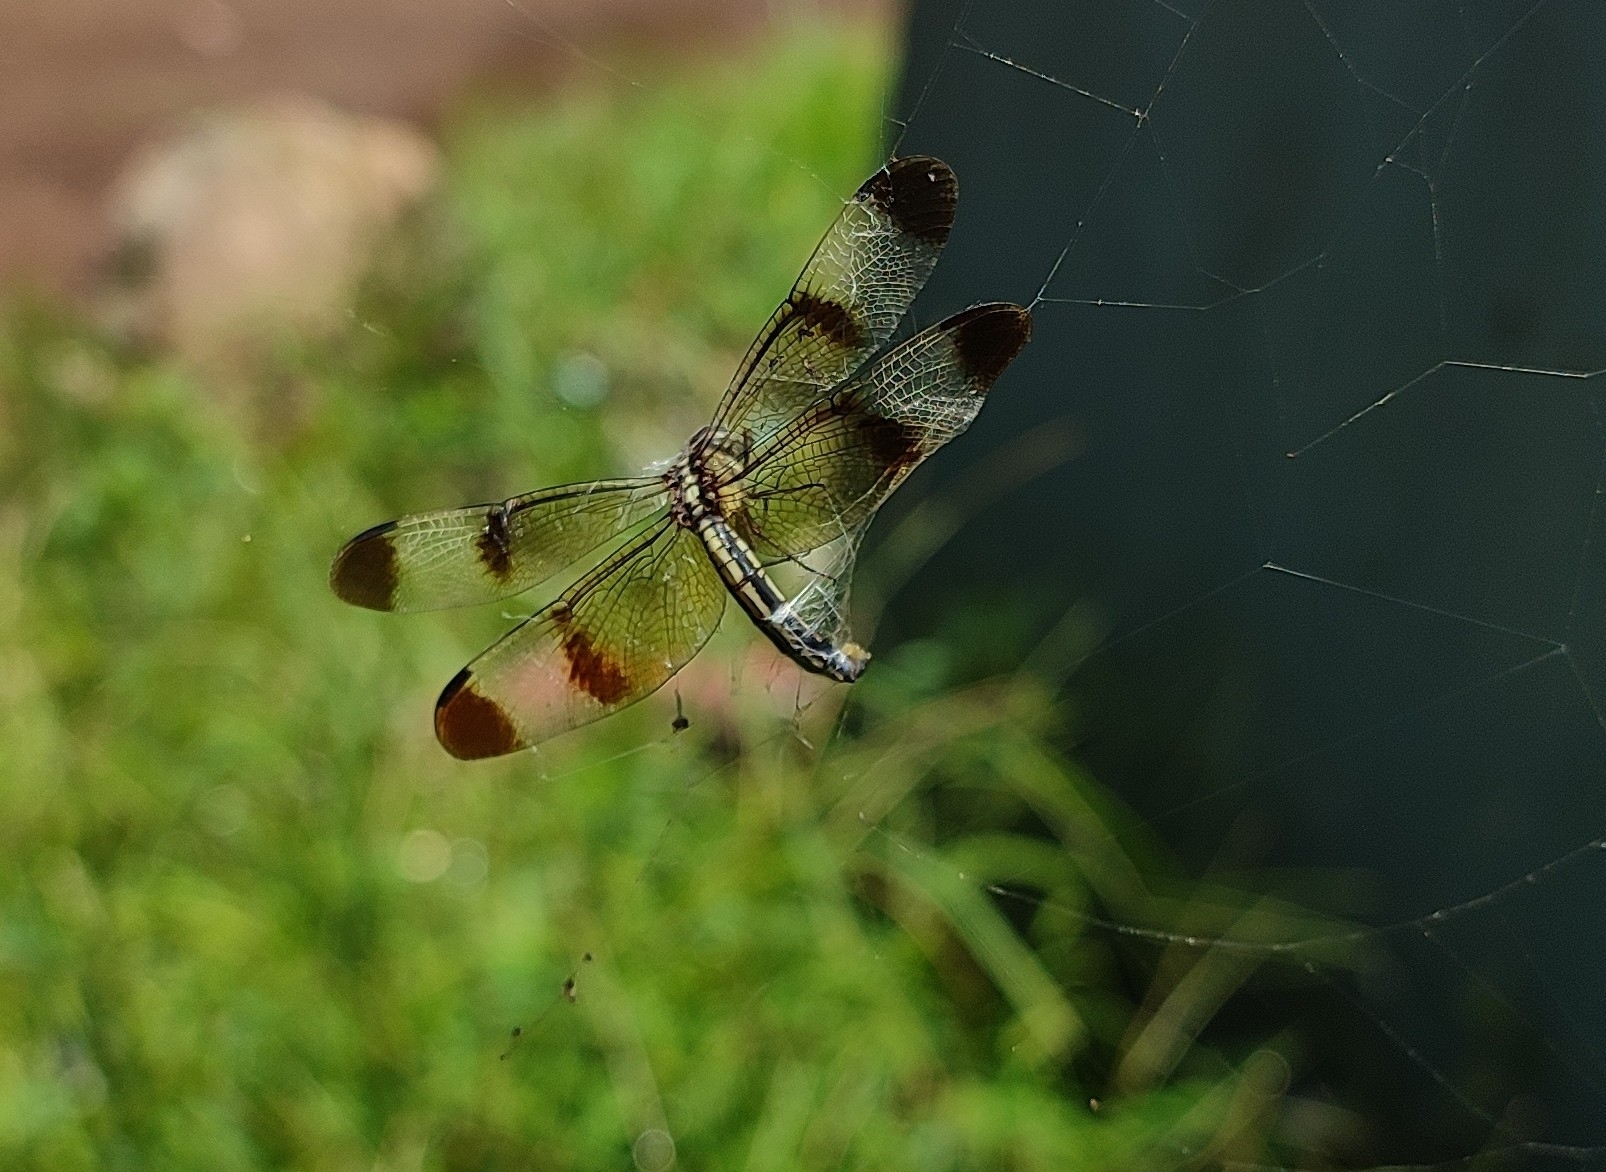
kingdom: Animalia
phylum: Arthropoda
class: Insecta
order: Odonata
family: Libellulidae
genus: Neurothemis
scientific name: Neurothemis tullia
